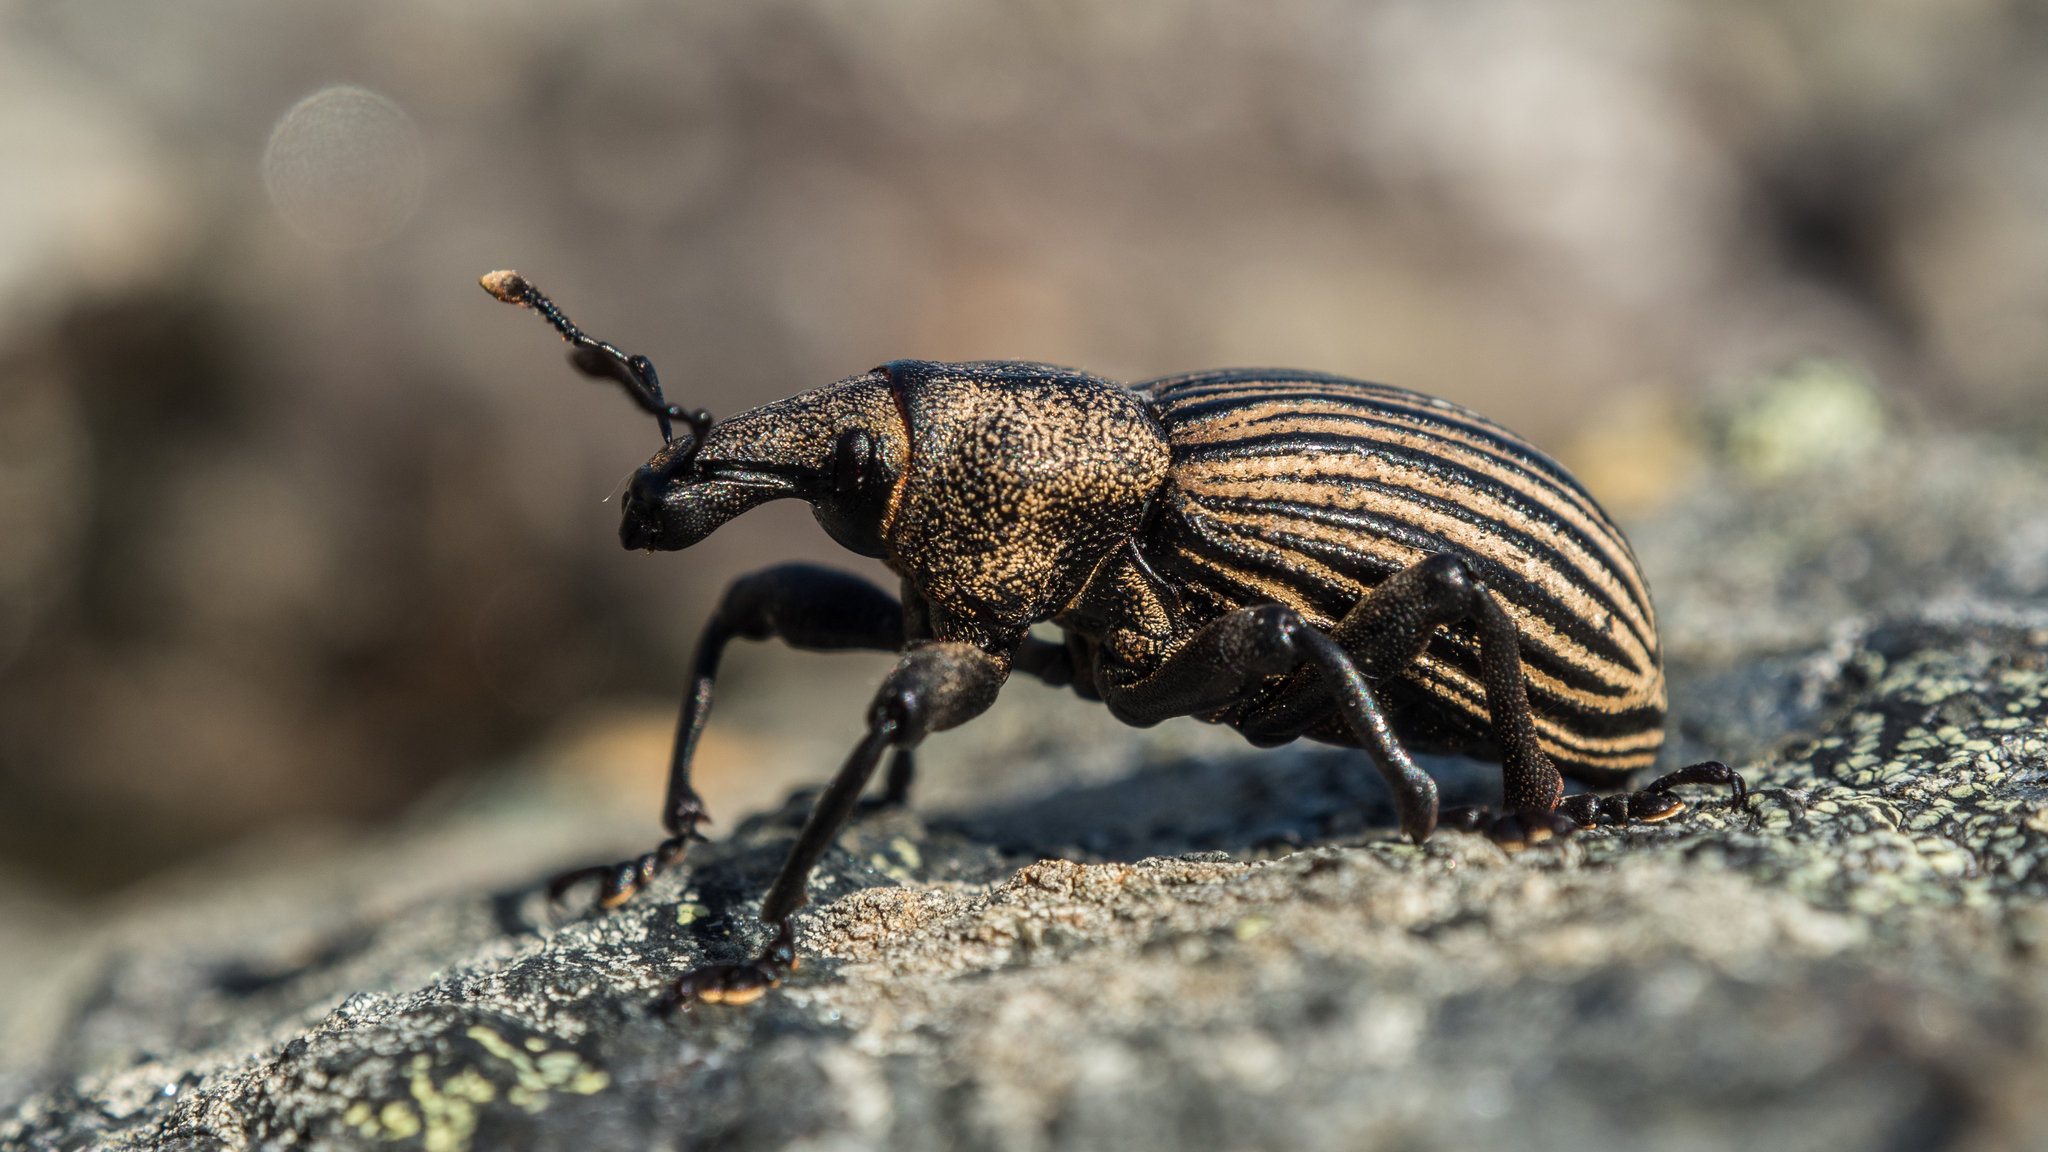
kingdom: Animalia
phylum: Arthropoda
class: Insecta
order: Coleoptera
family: Curculionidae
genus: Lyperobius
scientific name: Lyperobius cupiendus
